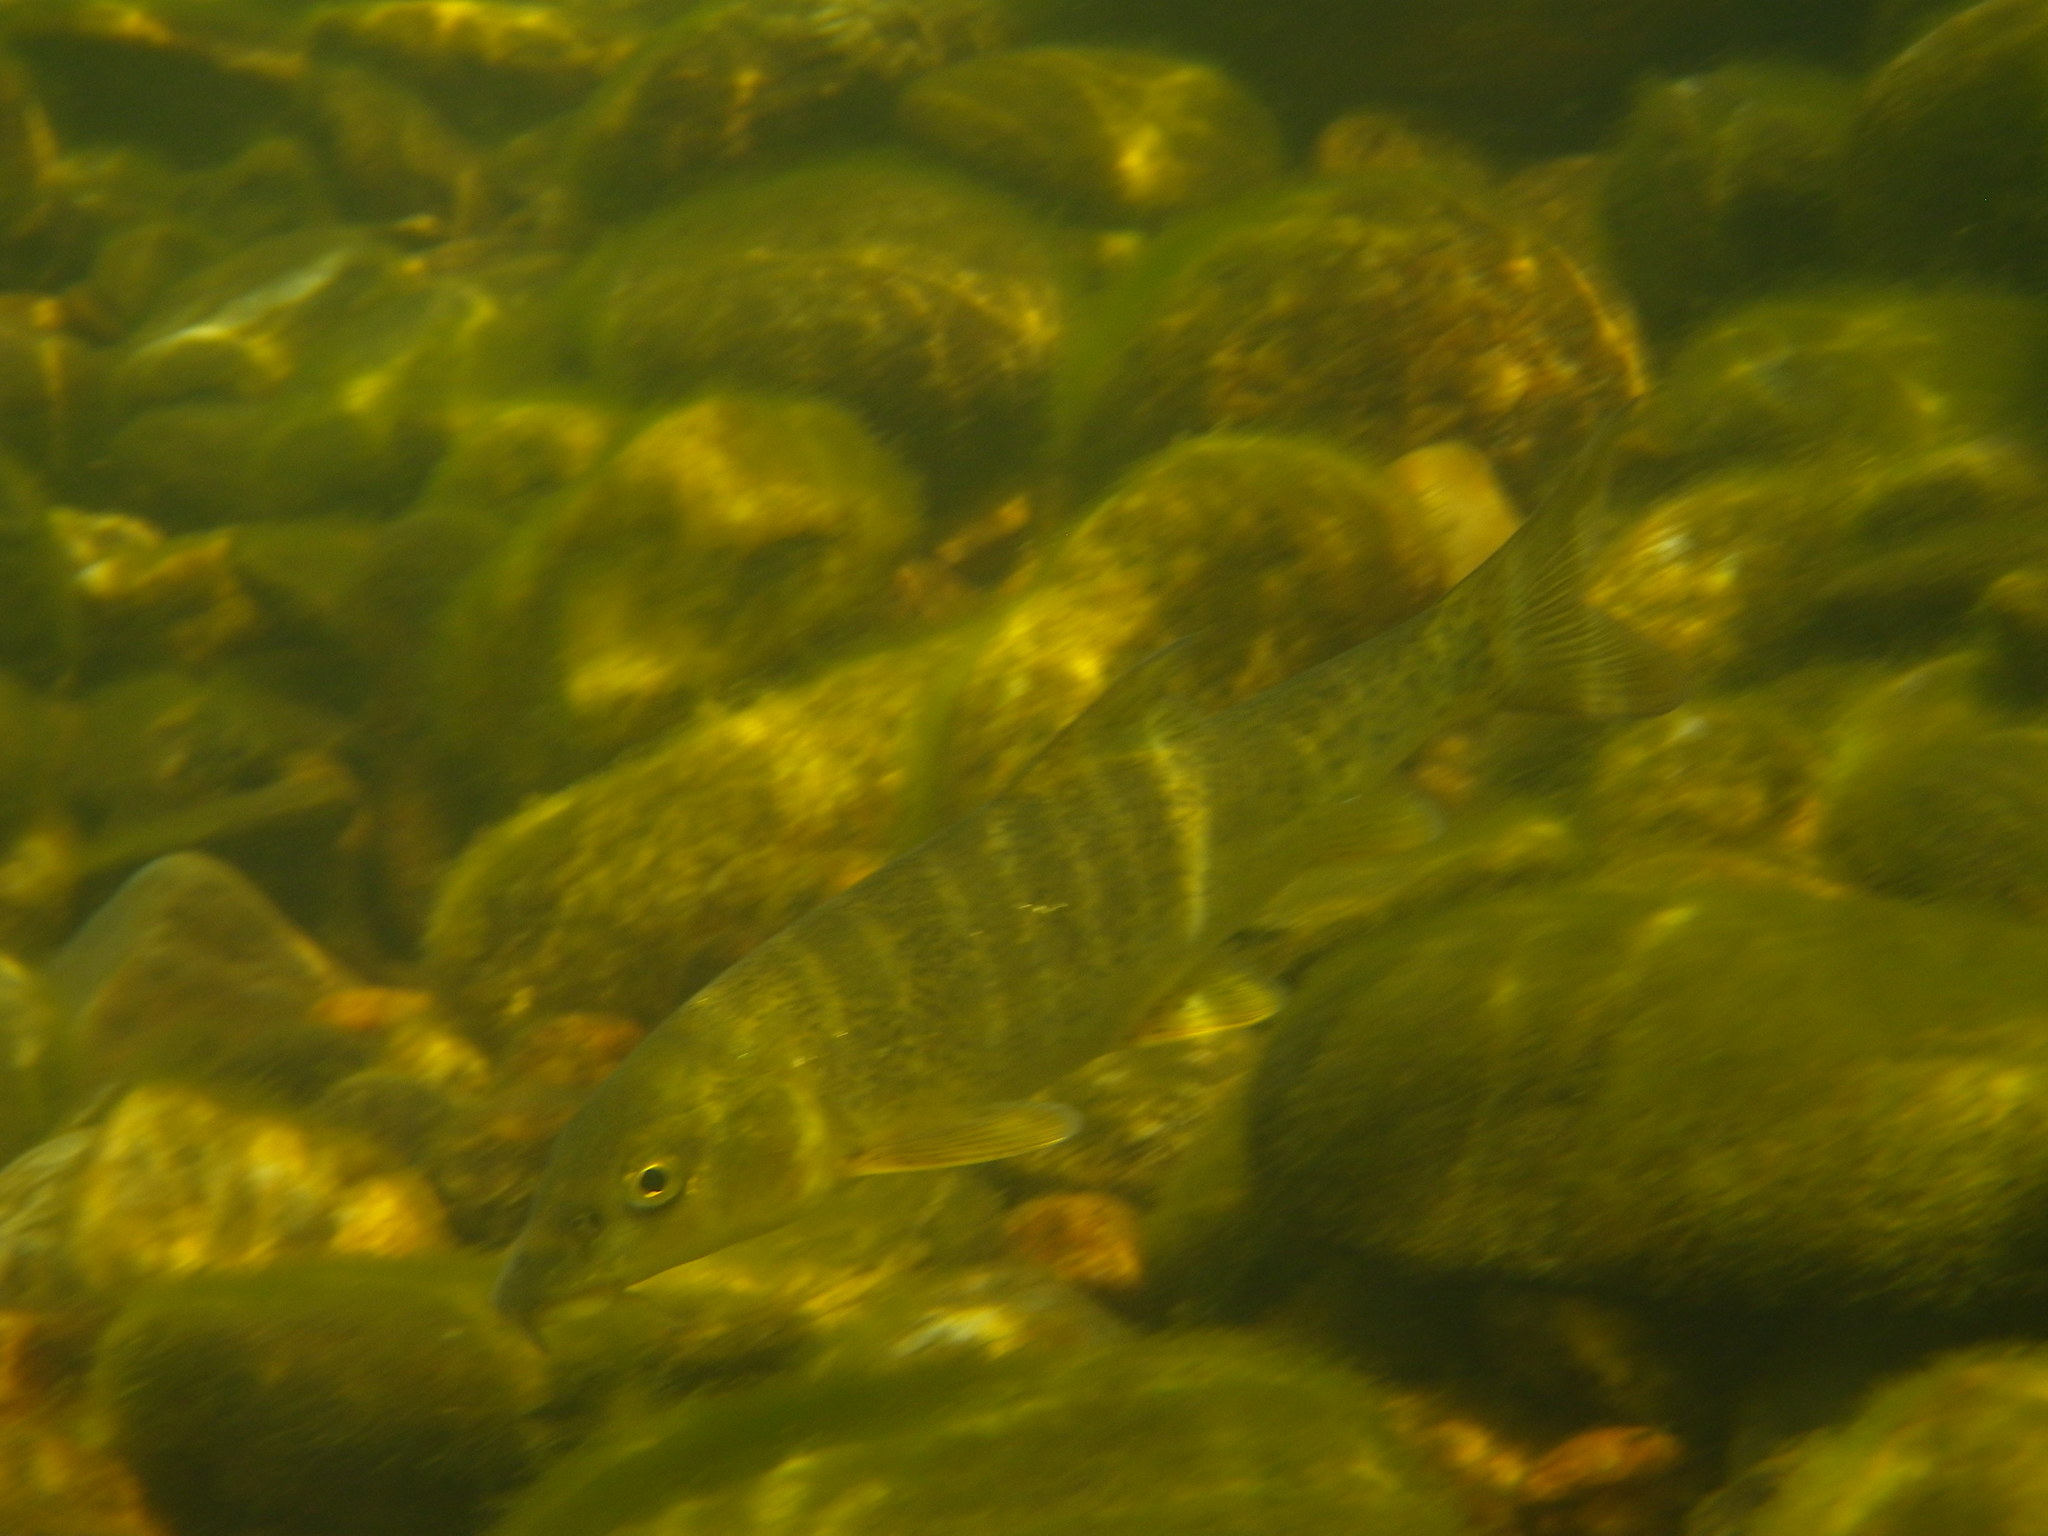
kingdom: Animalia
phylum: Chordata
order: Cypriniformes
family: Cyprinidae
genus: Barbus
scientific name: Barbus barbus
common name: Barbel
